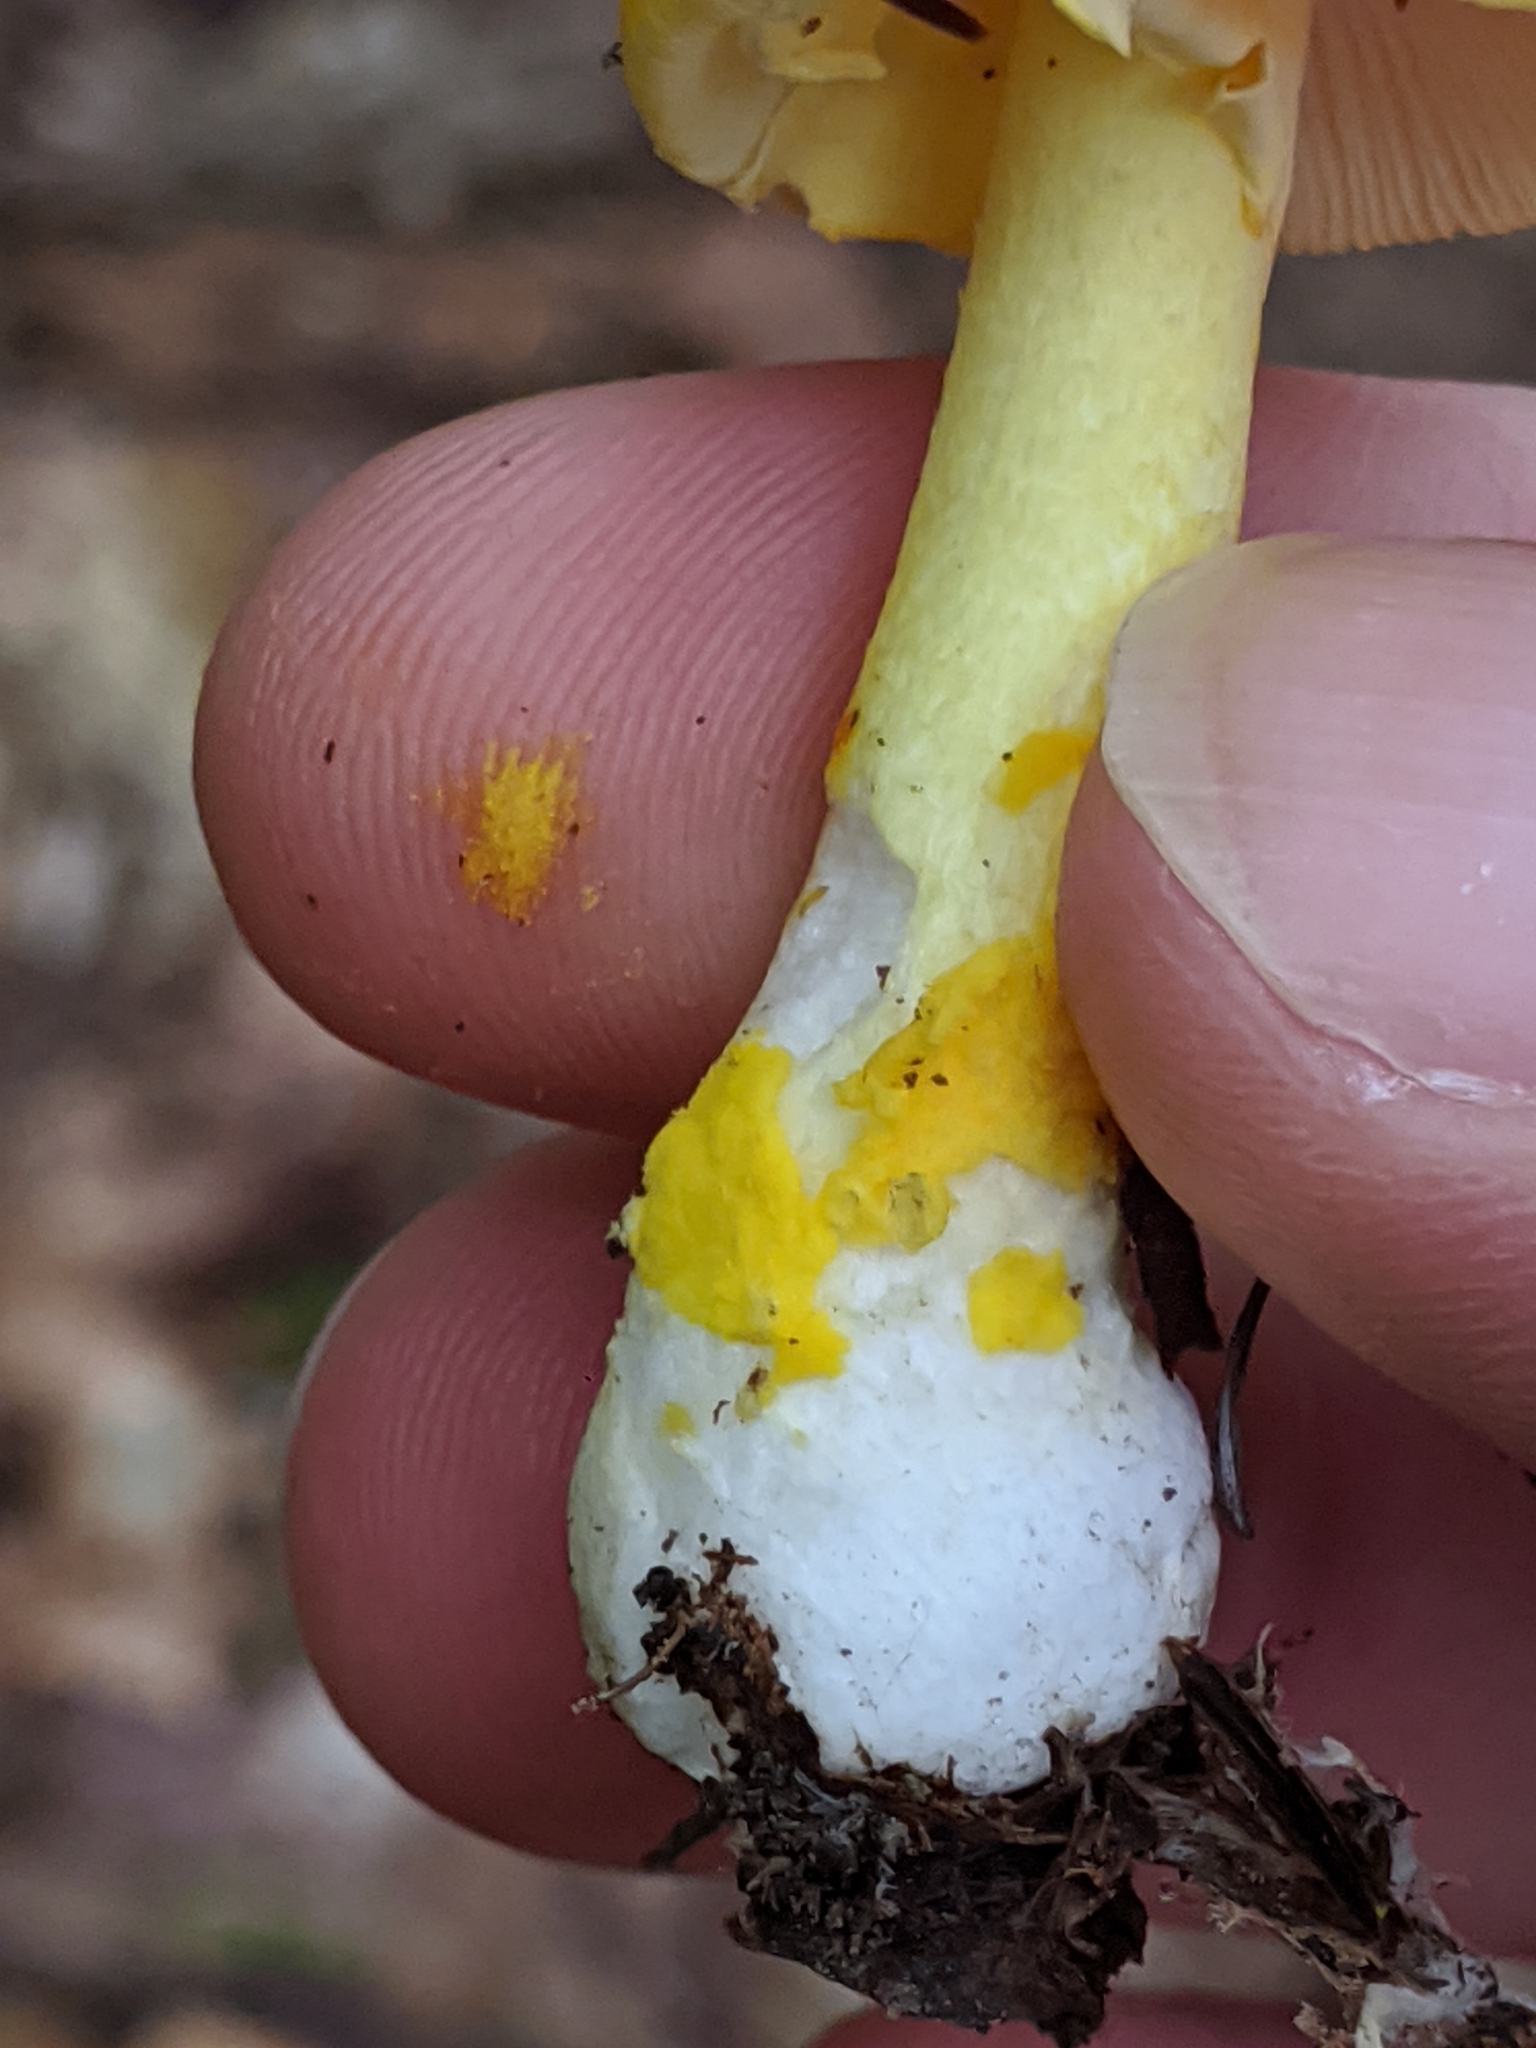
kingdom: Fungi
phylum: Basidiomycota
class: Agaricomycetes
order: Agaricales
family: Amanitaceae
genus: Amanita
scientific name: Amanita flavoconia
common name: Yellow patches
